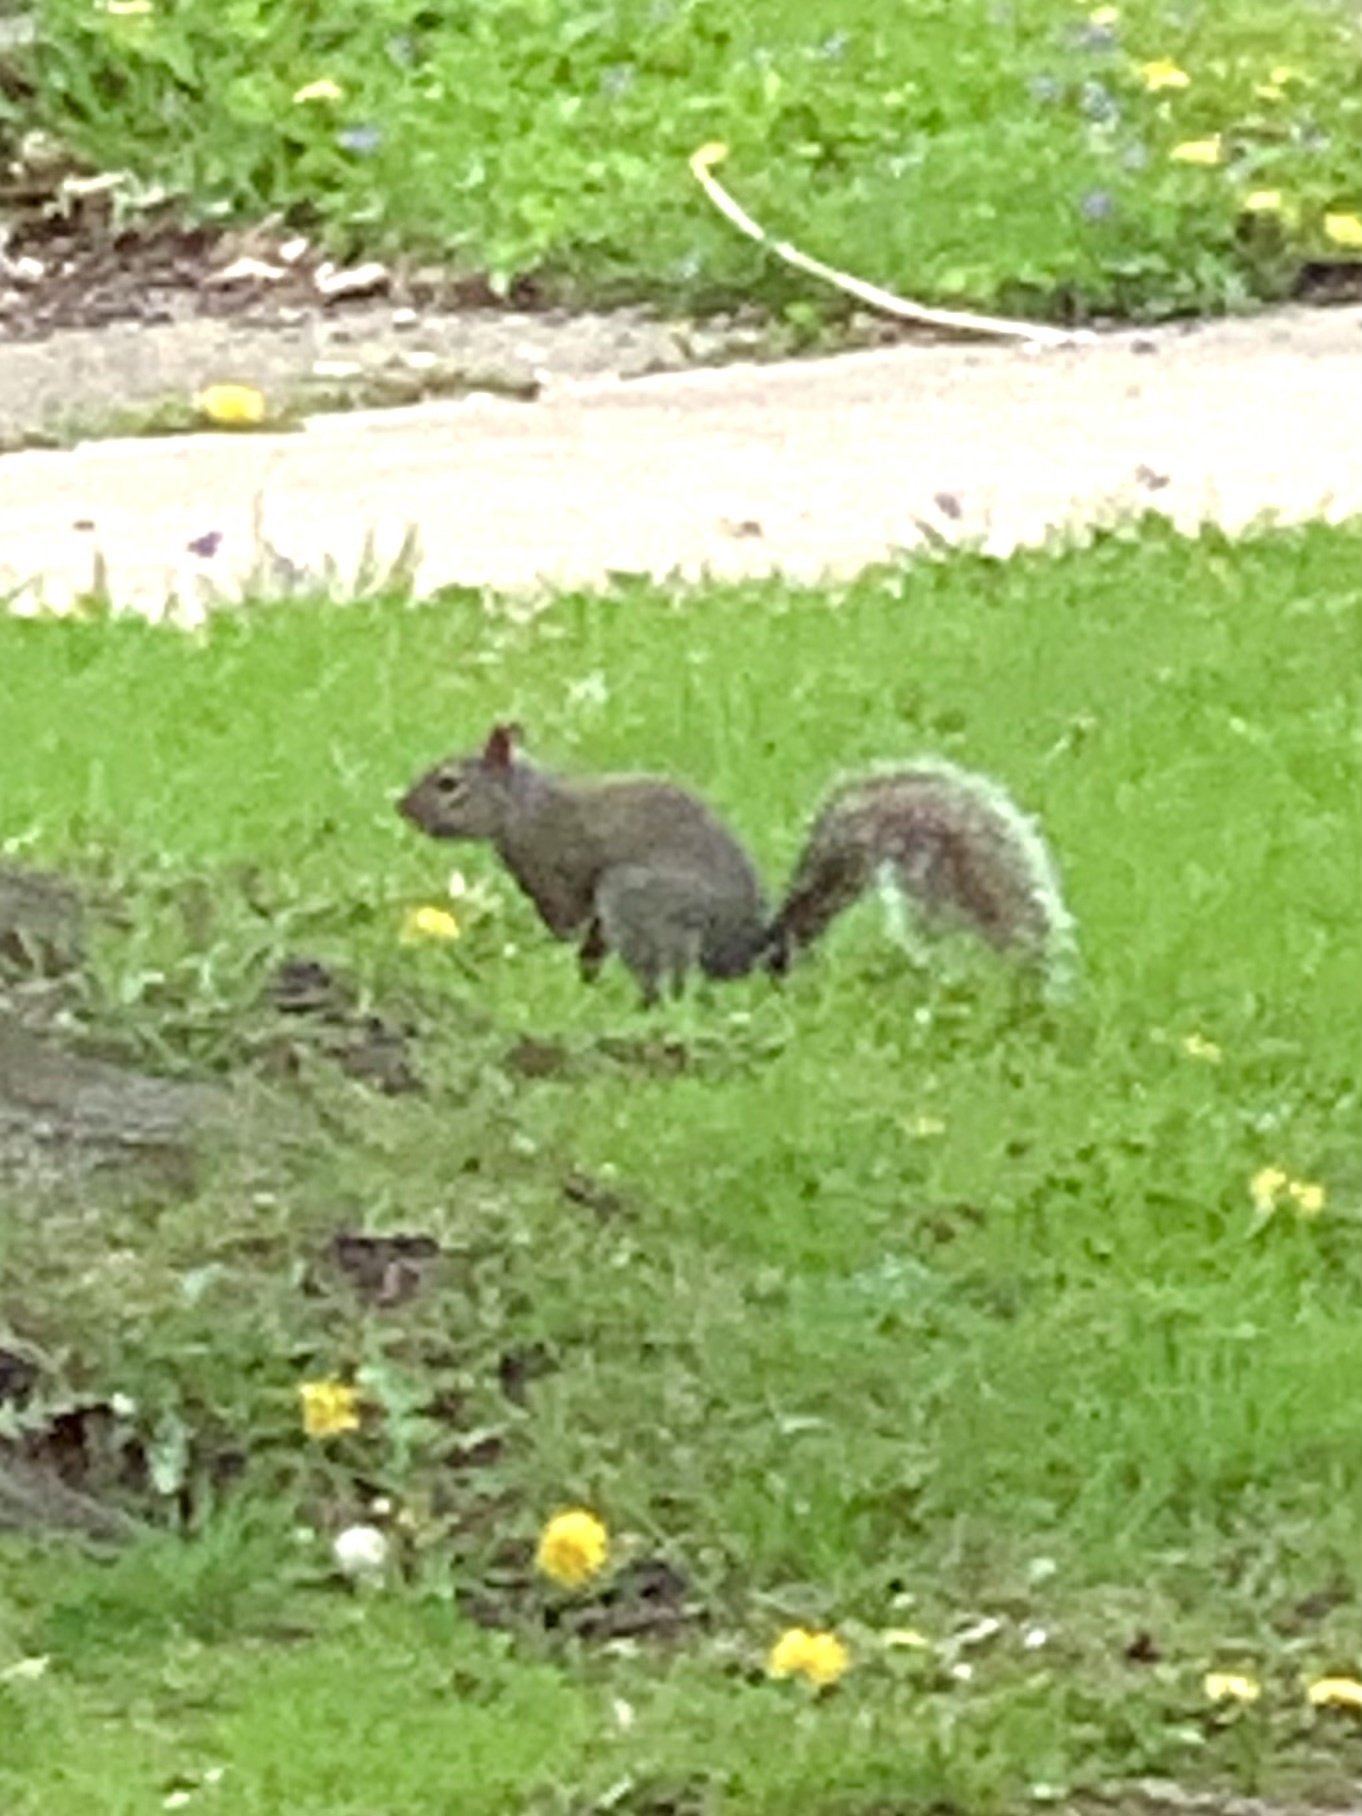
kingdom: Animalia
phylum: Chordata
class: Mammalia
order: Rodentia
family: Sciuridae
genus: Sciurus
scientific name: Sciurus carolinensis
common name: Eastern gray squirrel
